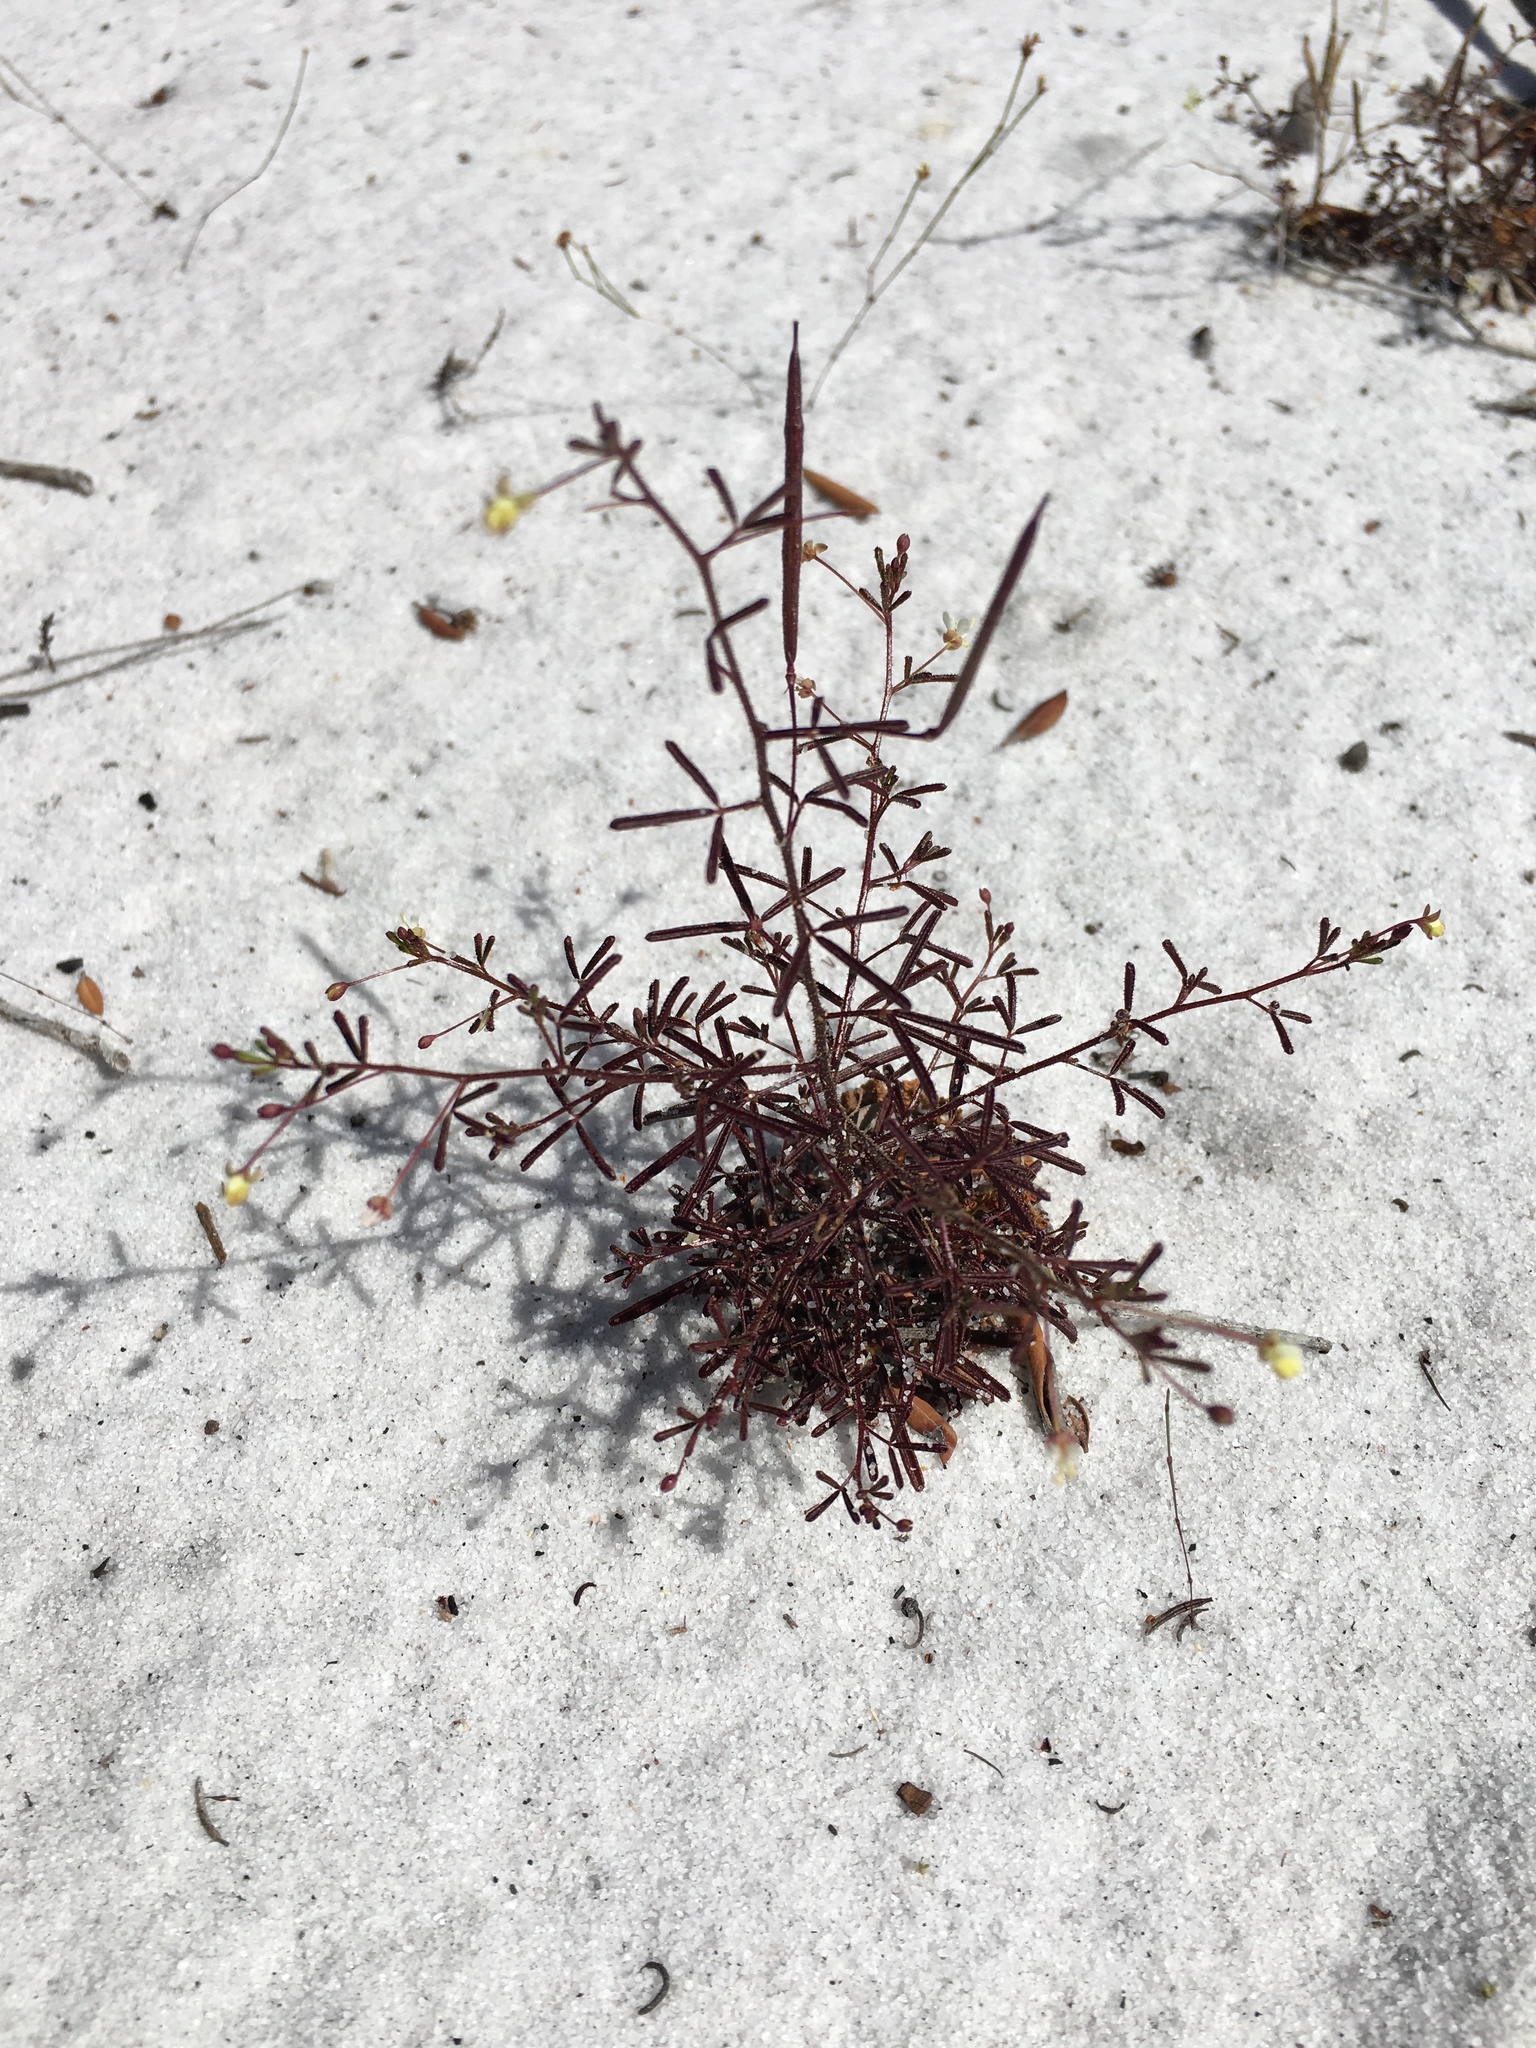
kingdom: Plantae
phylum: Tracheophyta
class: Magnoliopsida
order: Brassicales
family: Cleomaceae
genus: Polanisia
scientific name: Polanisia tenuifolia
